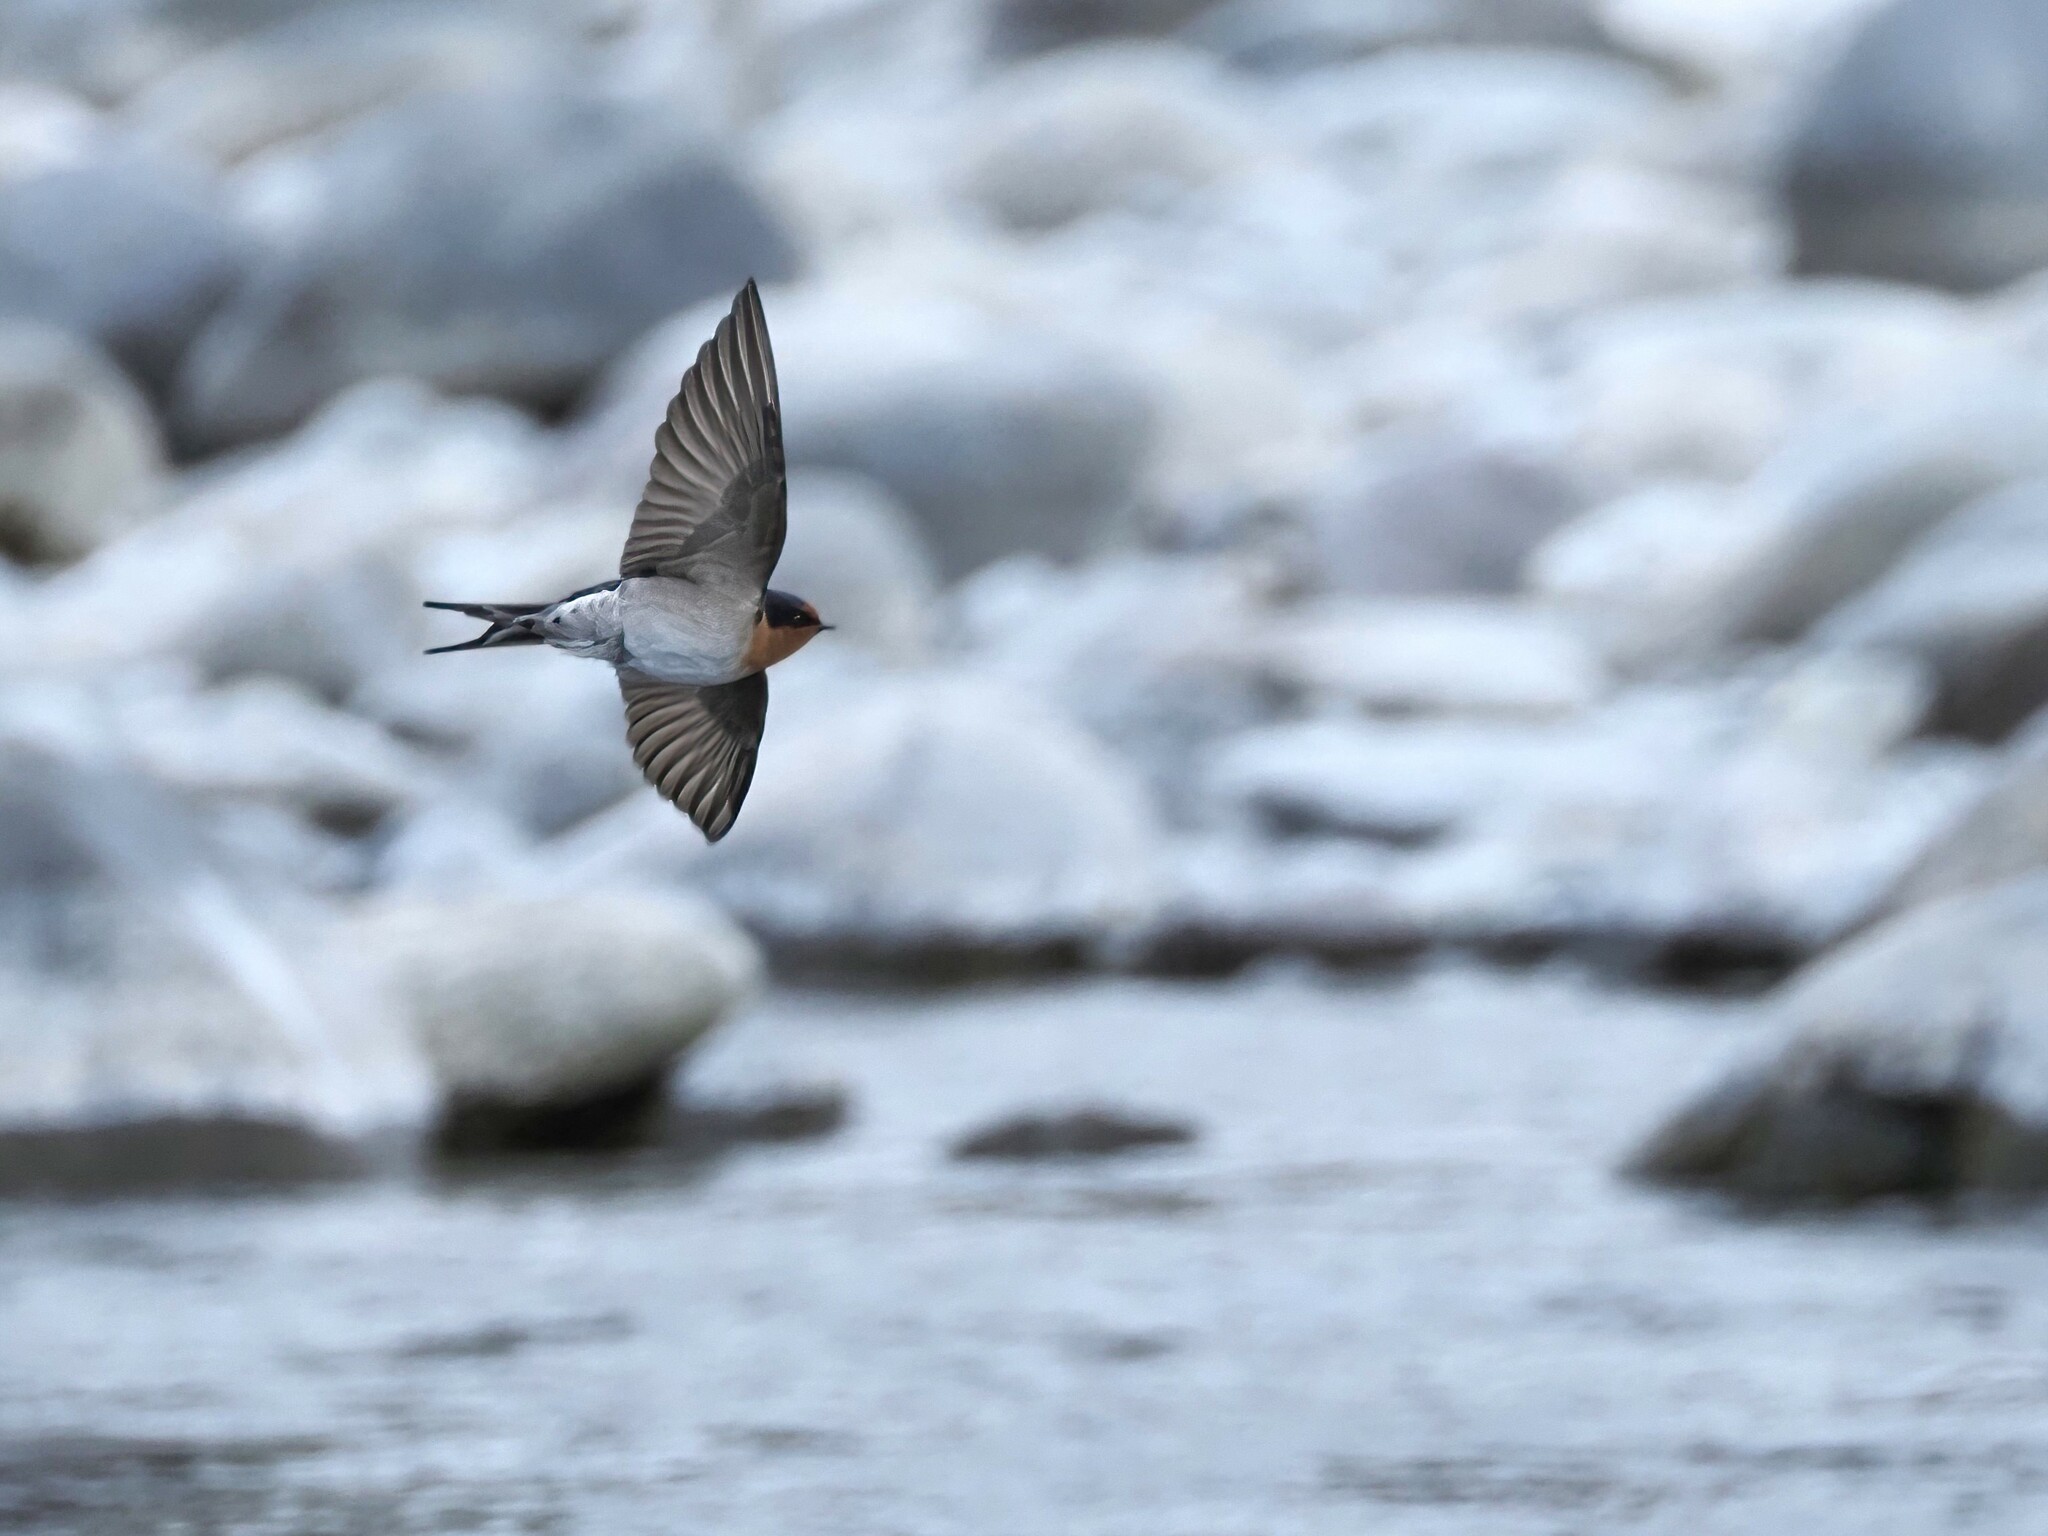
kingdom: Animalia
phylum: Chordata
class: Aves
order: Passeriformes
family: Hirundinidae
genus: Hirundo
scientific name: Hirundo neoxena
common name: Welcome swallow
